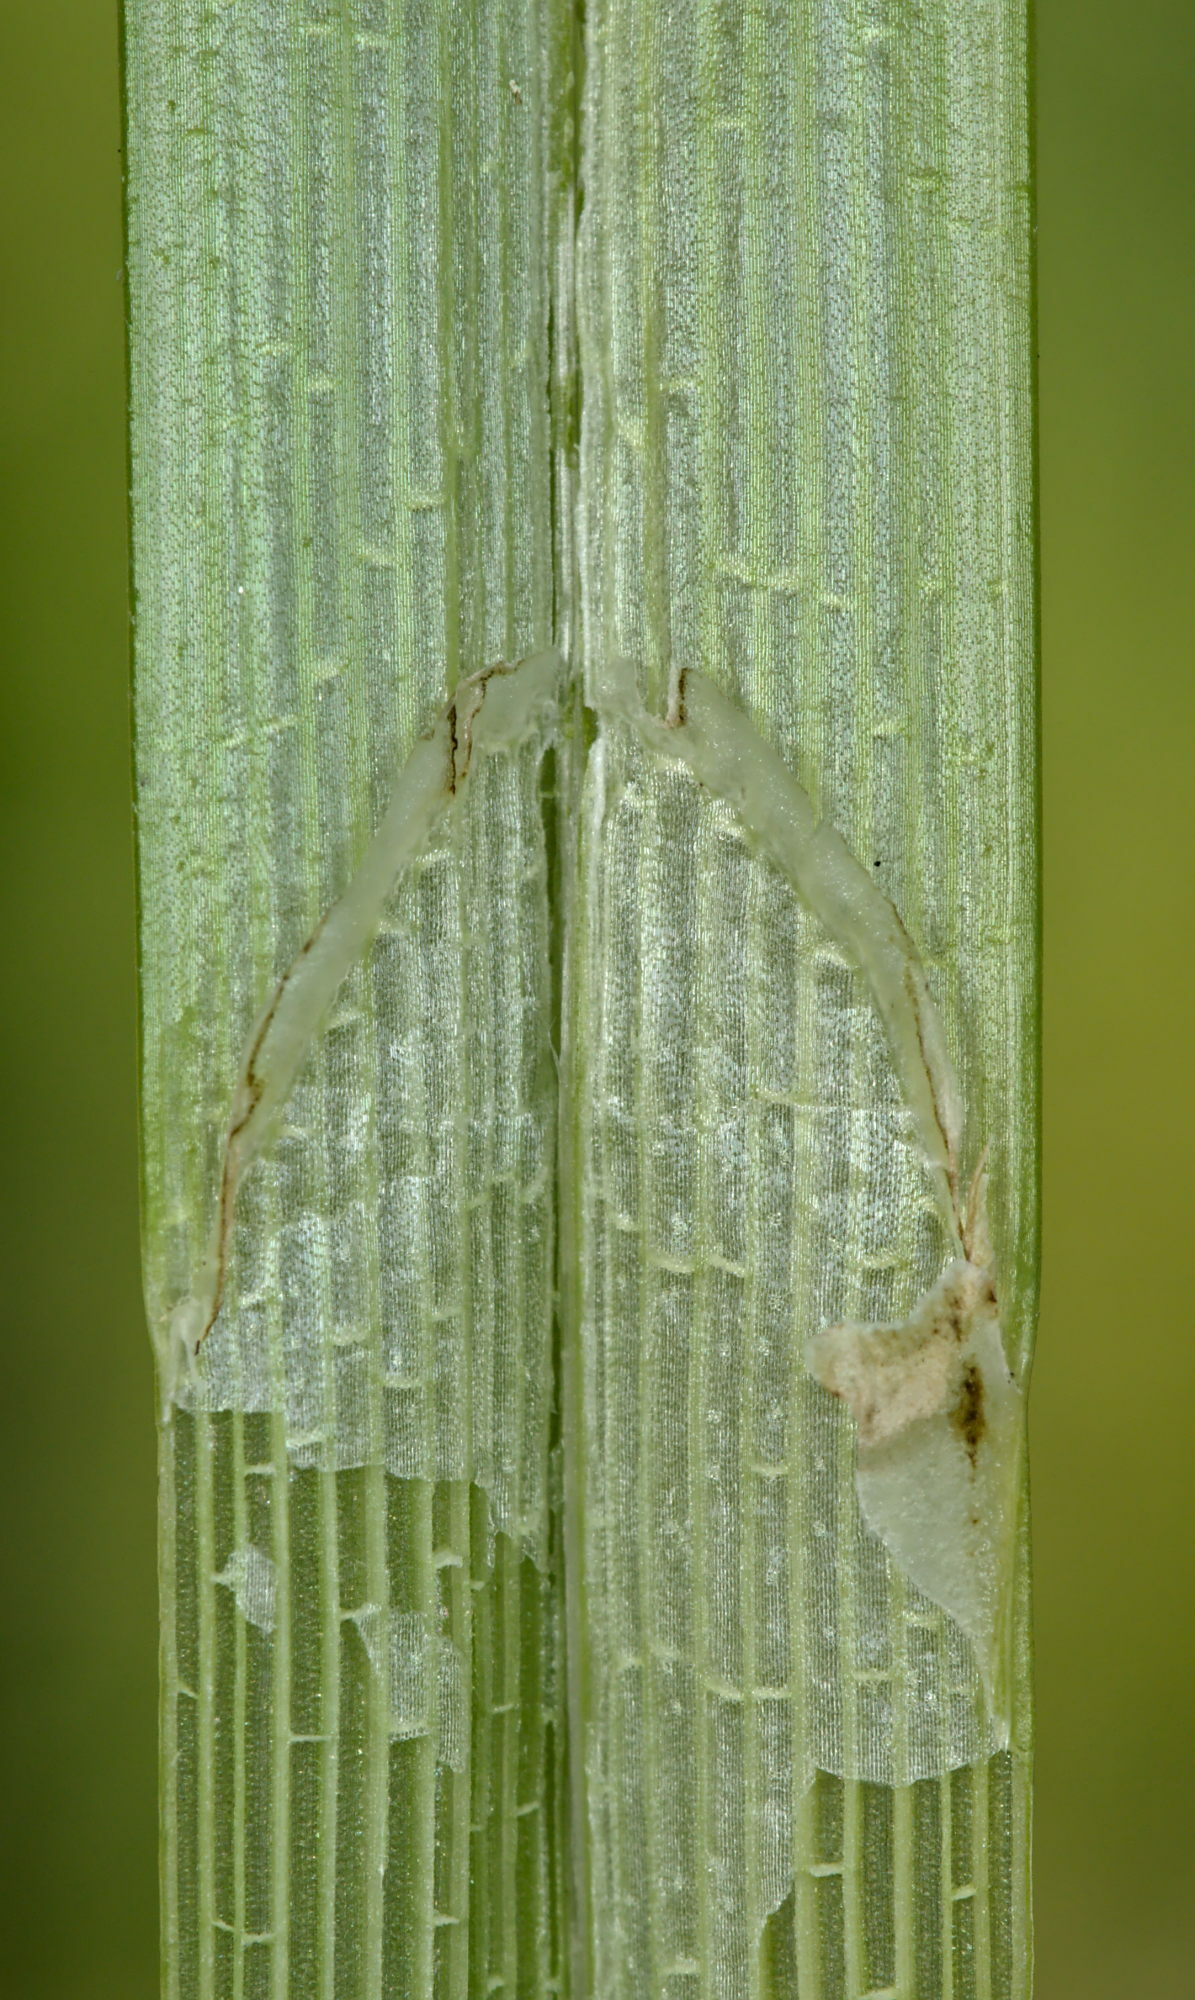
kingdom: Plantae
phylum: Tracheophyta
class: Liliopsida
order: Poales
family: Cyperaceae
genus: Carex
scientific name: Carex pseudocyperus
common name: Cyperus sedge
